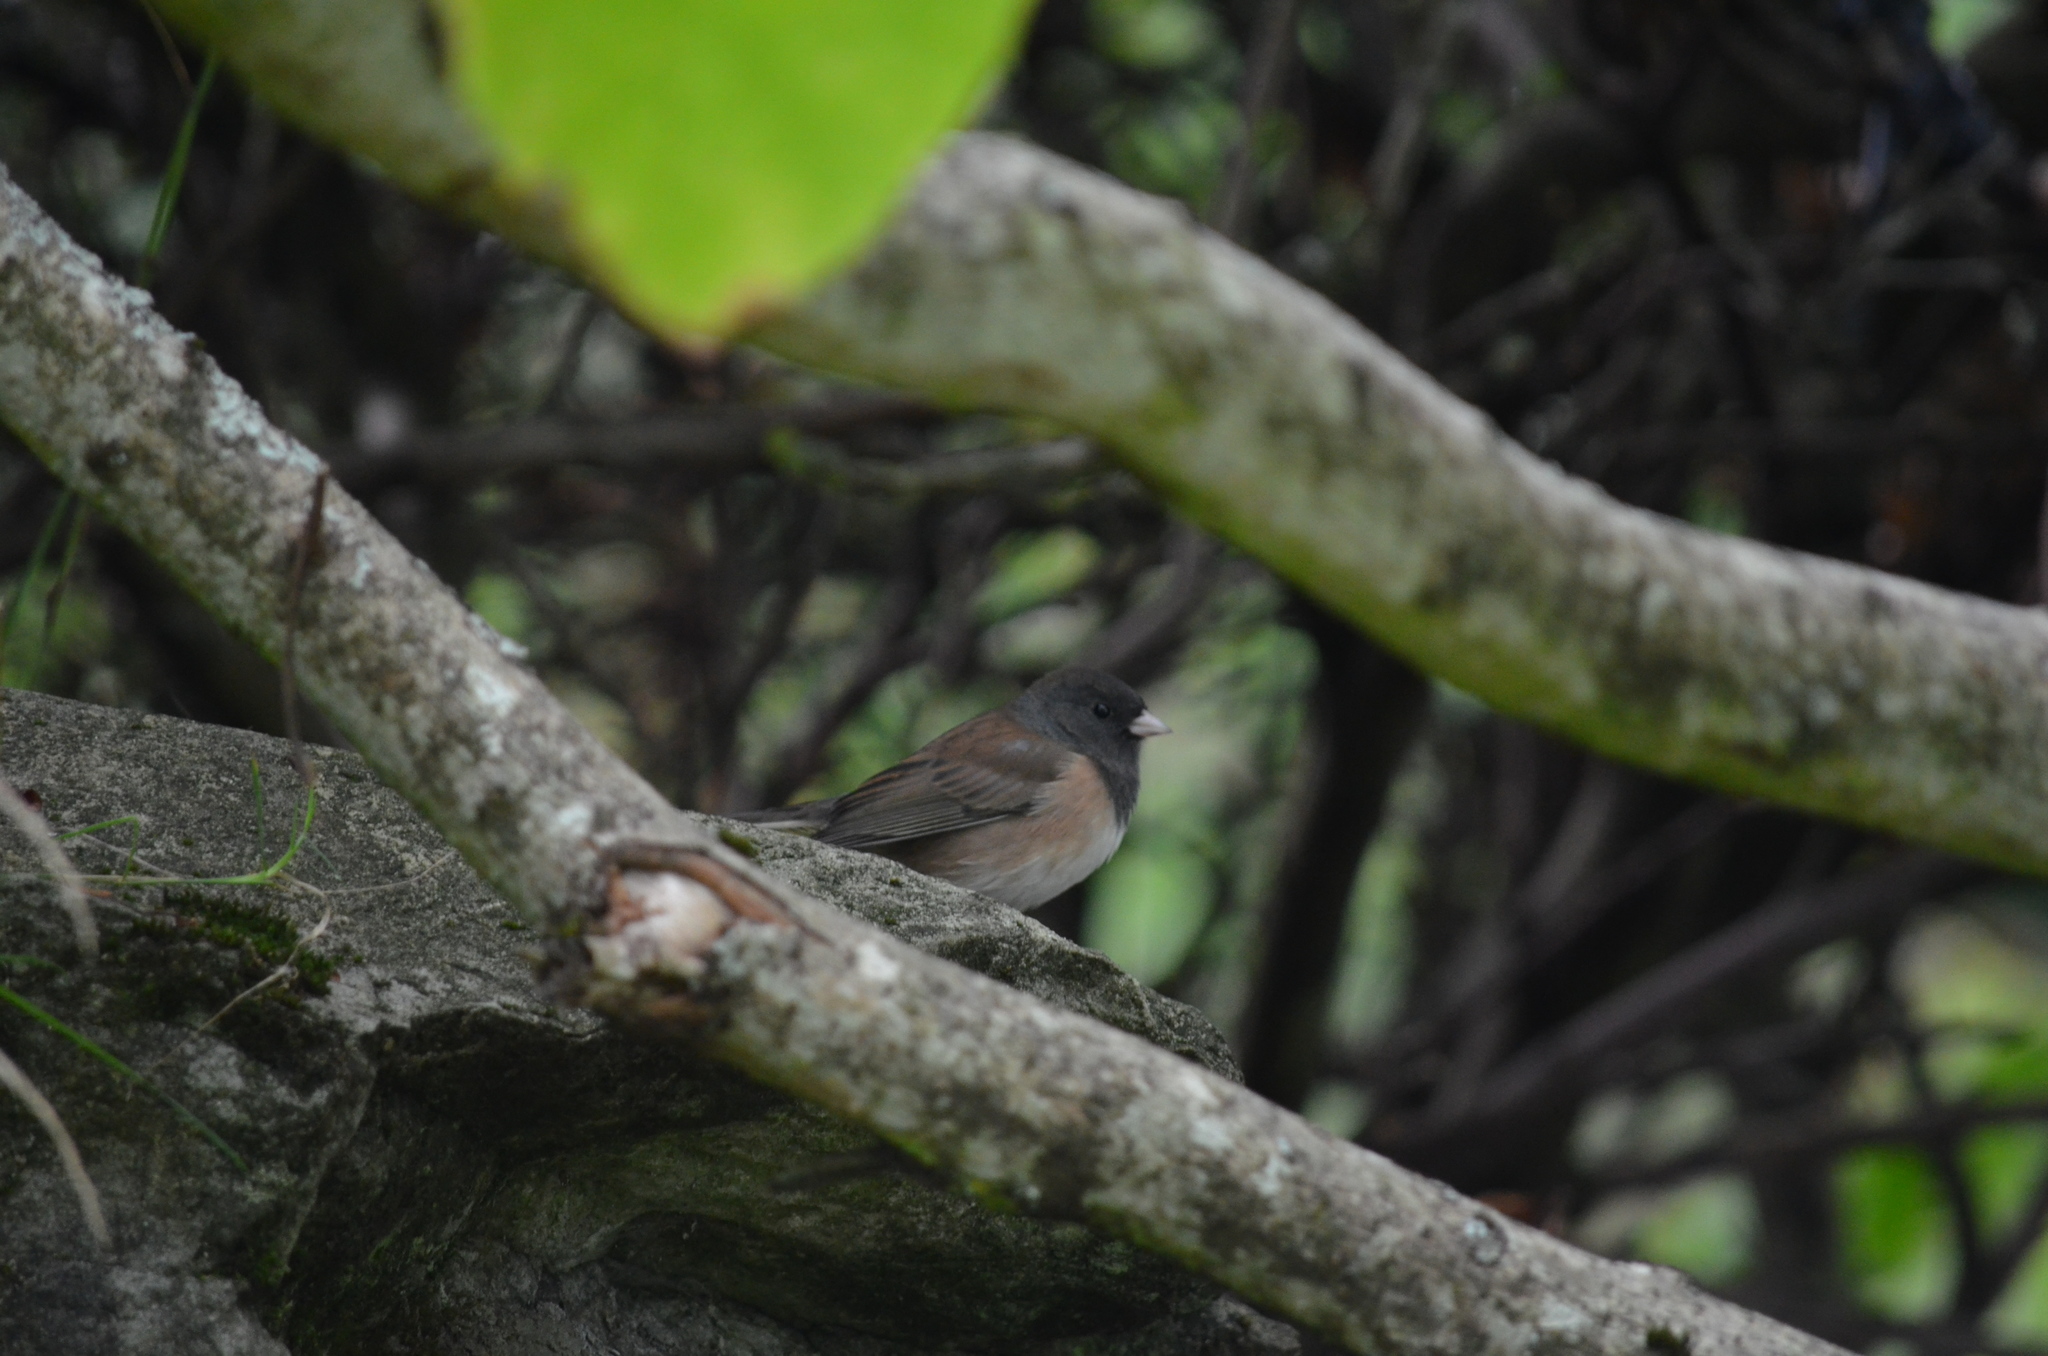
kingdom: Animalia
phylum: Chordata
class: Aves
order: Passeriformes
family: Passerellidae
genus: Junco
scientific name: Junco hyemalis
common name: Dark-eyed junco
